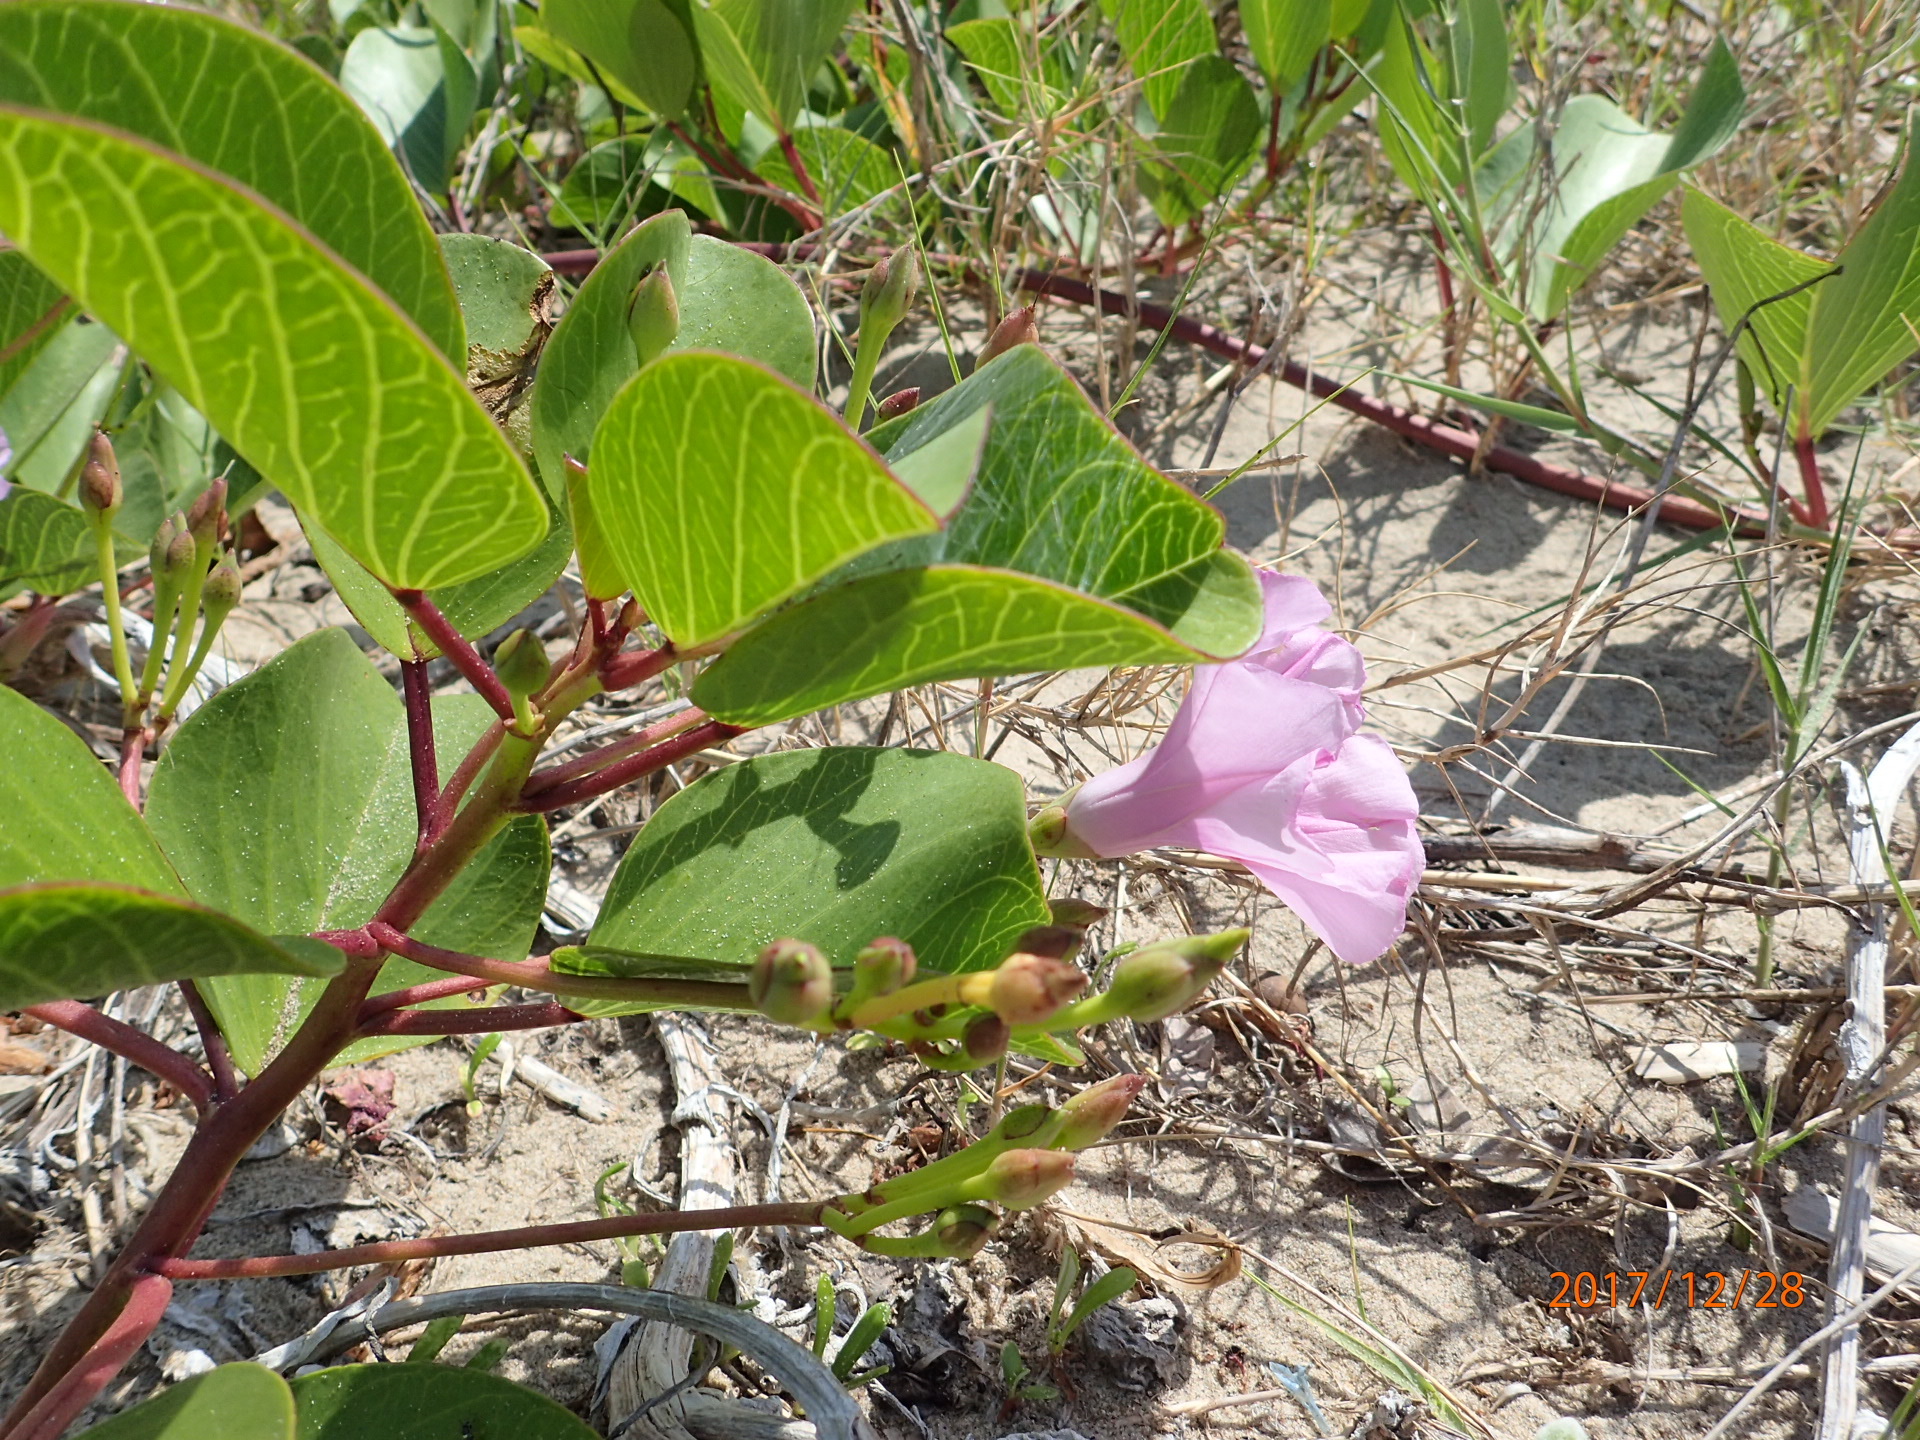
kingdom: Plantae
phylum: Tracheophyta
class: Magnoliopsida
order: Solanales
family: Convolvulaceae
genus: Ipomoea
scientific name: Ipomoea pes-caprae
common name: Beach morning glory
